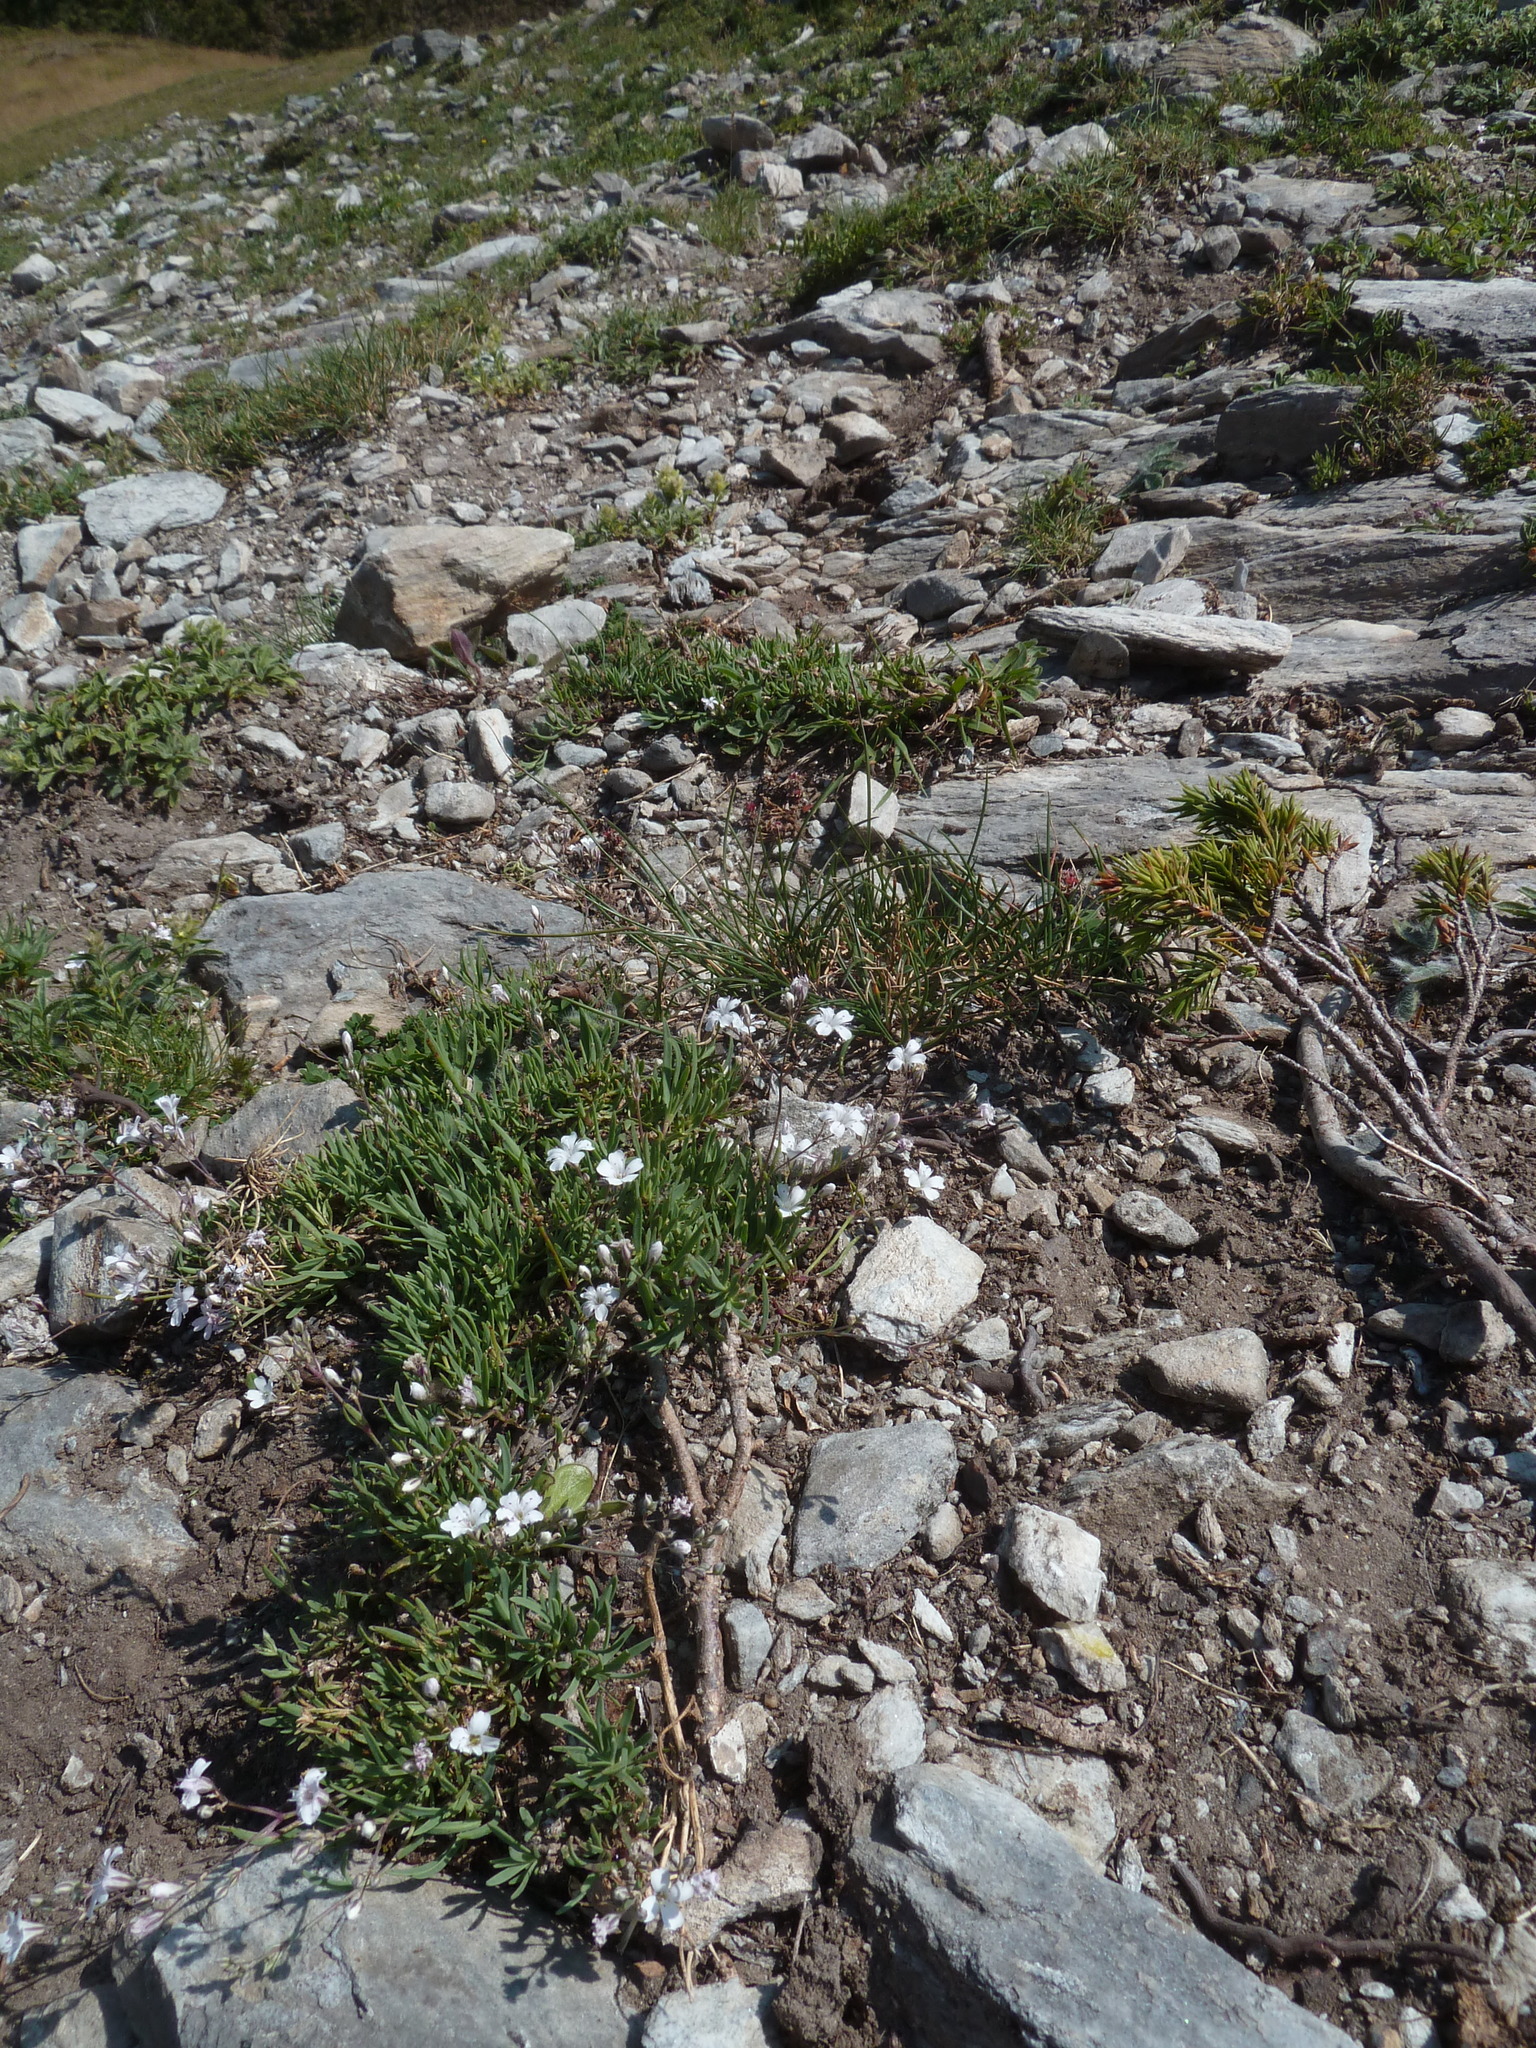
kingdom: Plantae
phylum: Tracheophyta
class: Magnoliopsida
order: Caryophyllales
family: Caryophyllaceae
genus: Gypsophila
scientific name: Gypsophila repens
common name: Creeping baby's-breath
